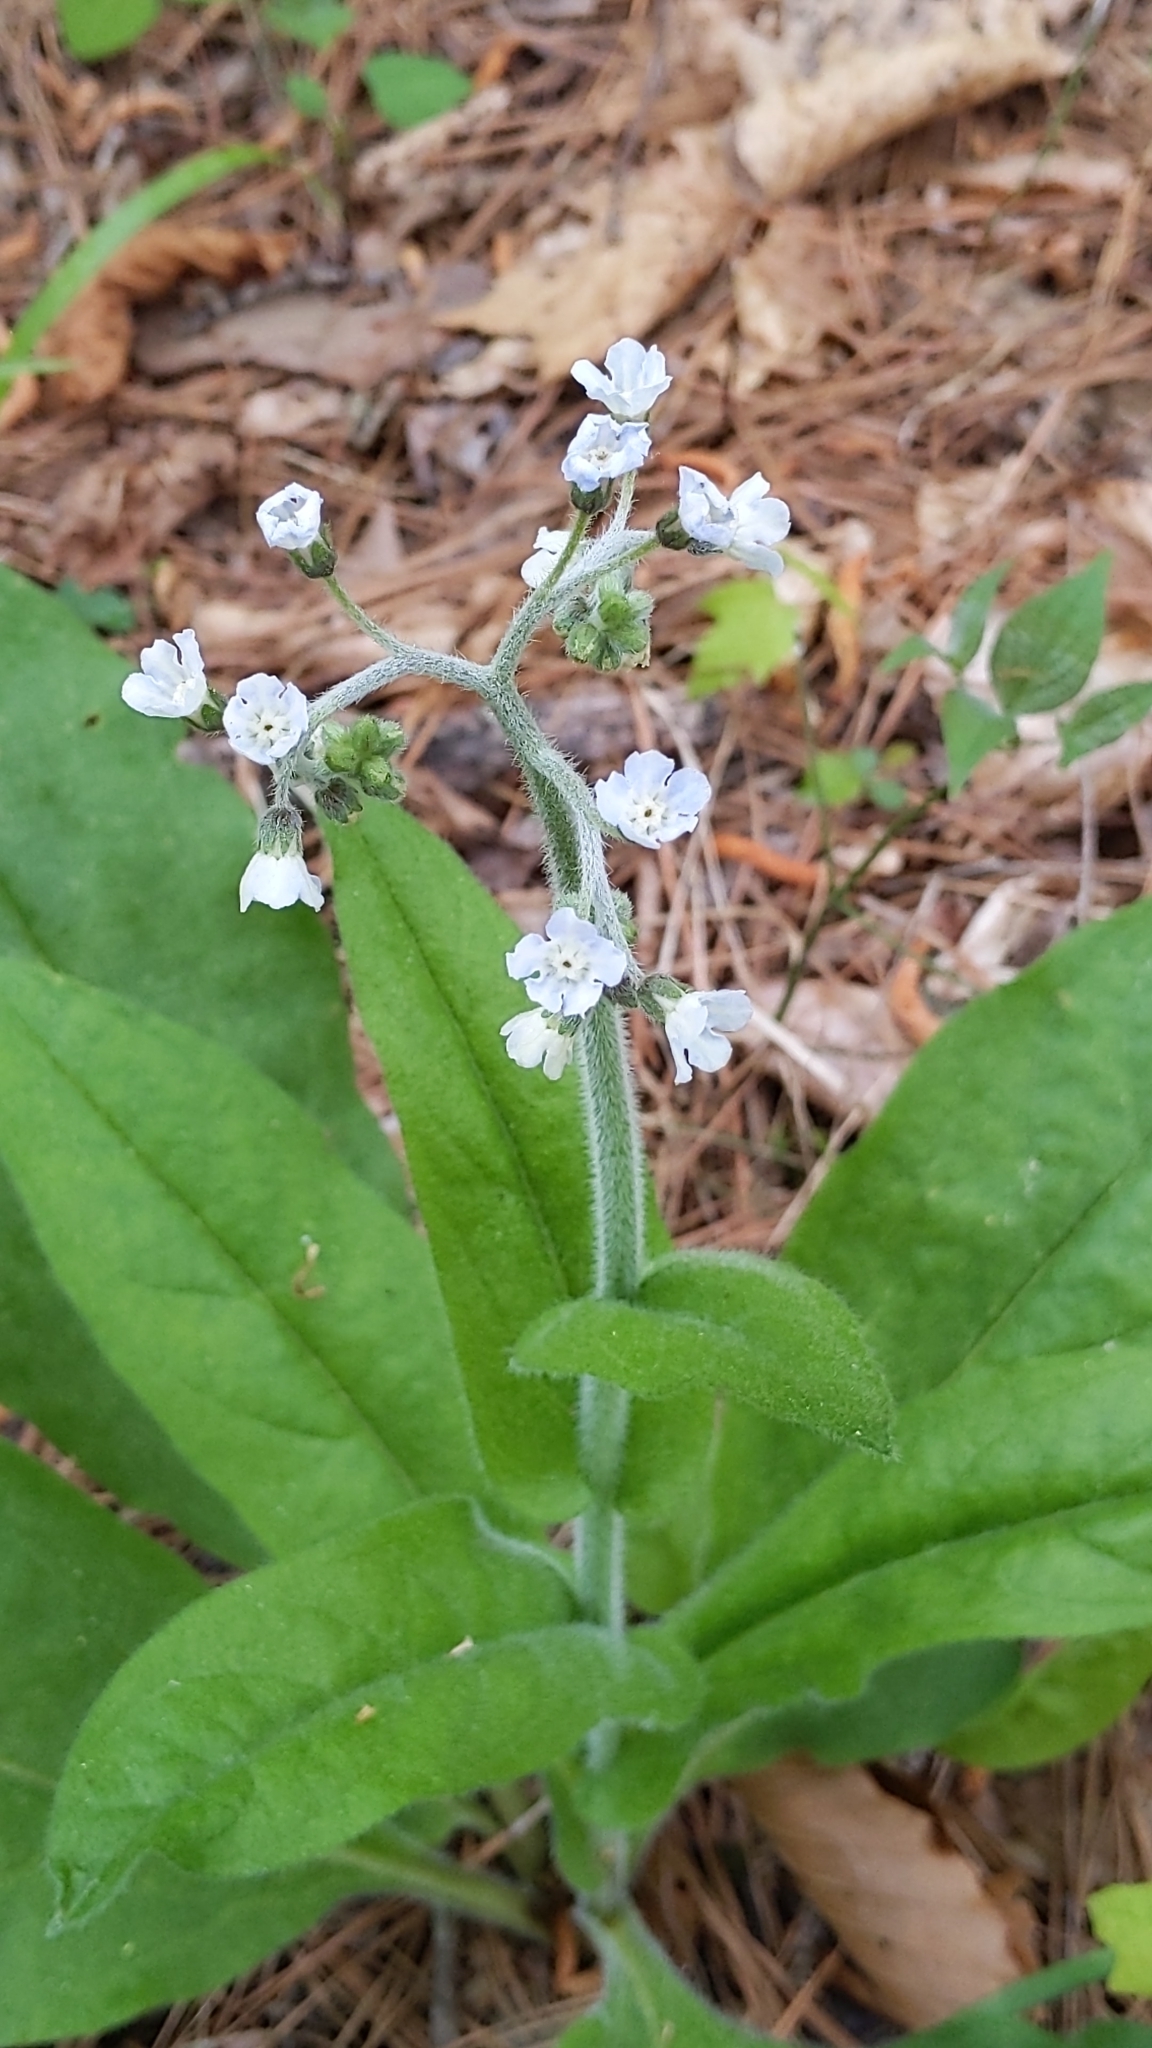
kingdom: Plantae
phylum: Tracheophyta
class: Magnoliopsida
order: Boraginales
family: Boraginaceae
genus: Andersonglossum
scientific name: Andersonglossum virginianum
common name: Wild comfrey
